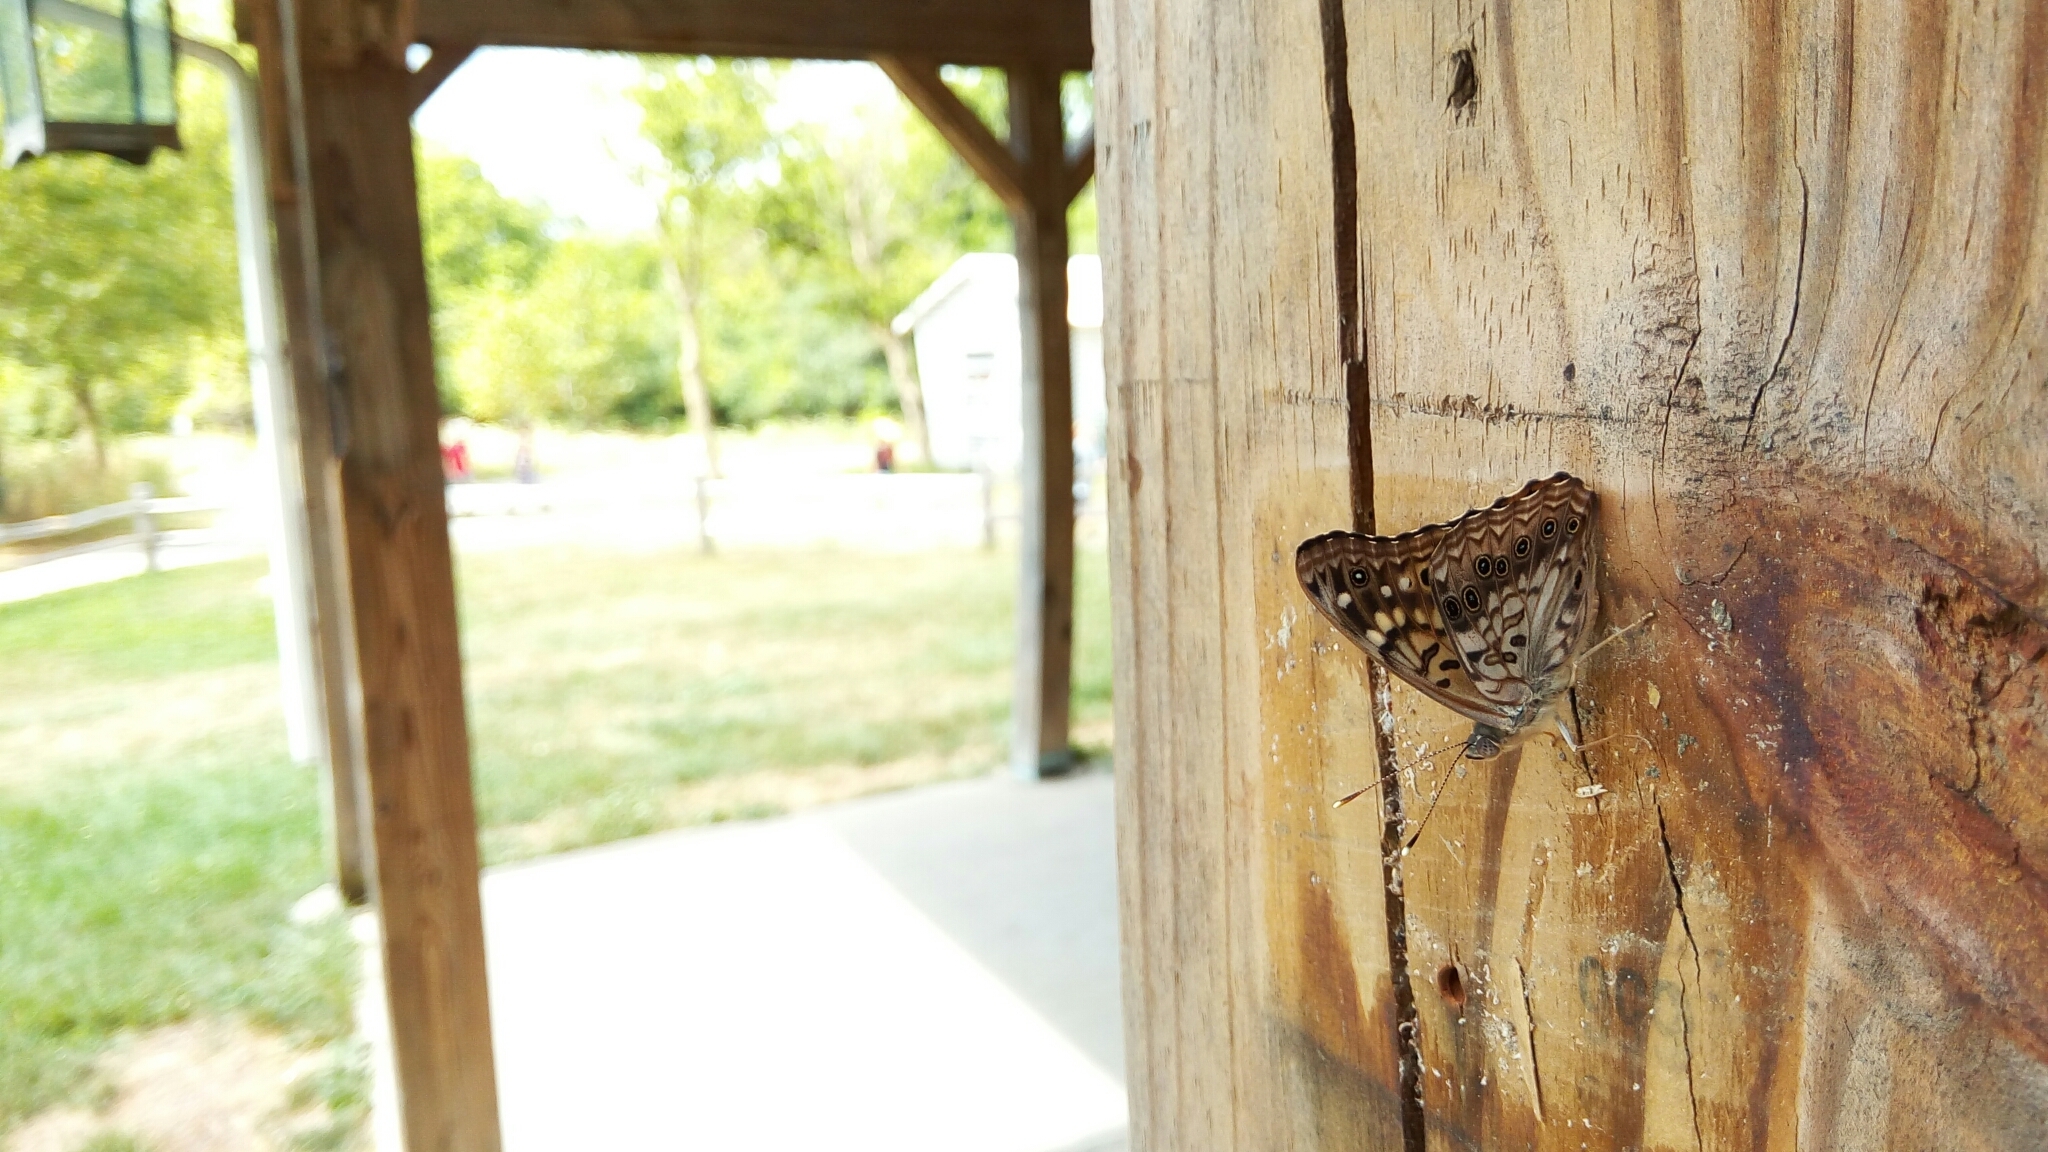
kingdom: Animalia
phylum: Arthropoda
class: Insecta
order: Lepidoptera
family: Nymphalidae
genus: Asterocampa
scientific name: Asterocampa celtis
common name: Hackberry emperor
